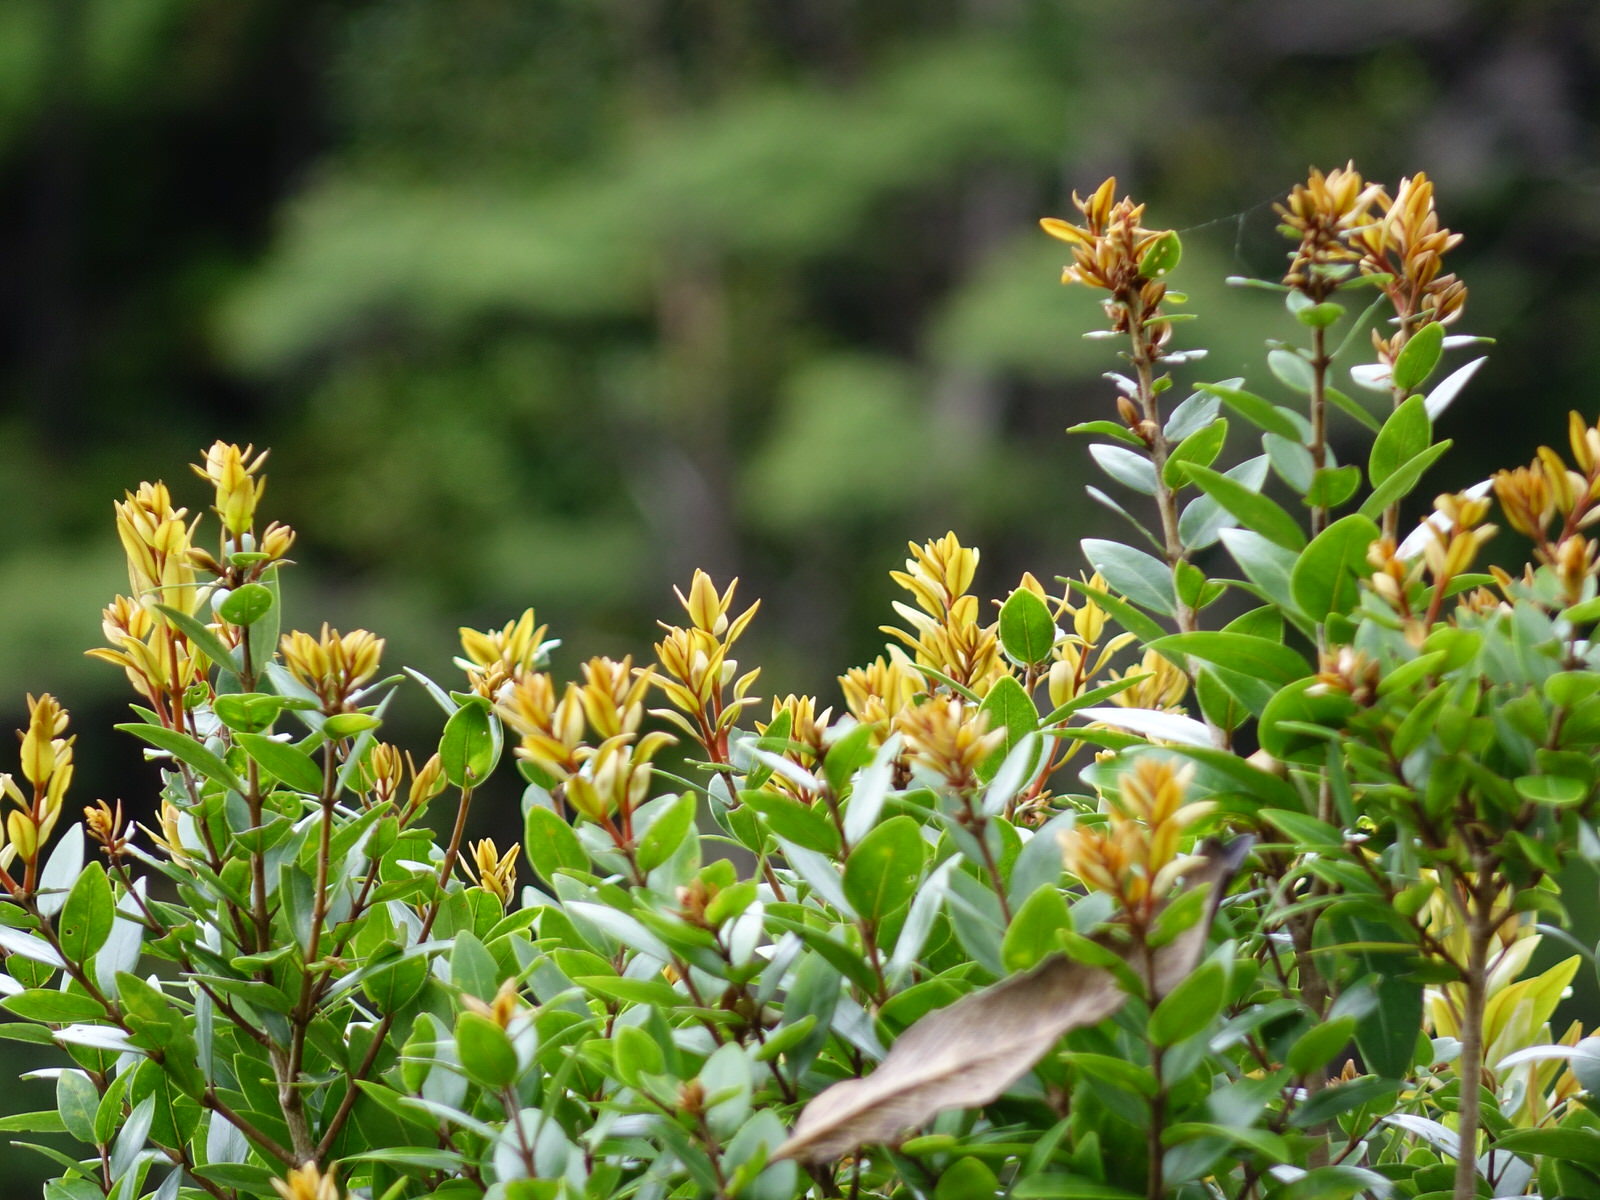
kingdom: Plantae
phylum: Tracheophyta
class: Magnoliopsida
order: Myrtales
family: Myrtaceae
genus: Metrosideros
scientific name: Metrosideros robusta
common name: Northern rata
